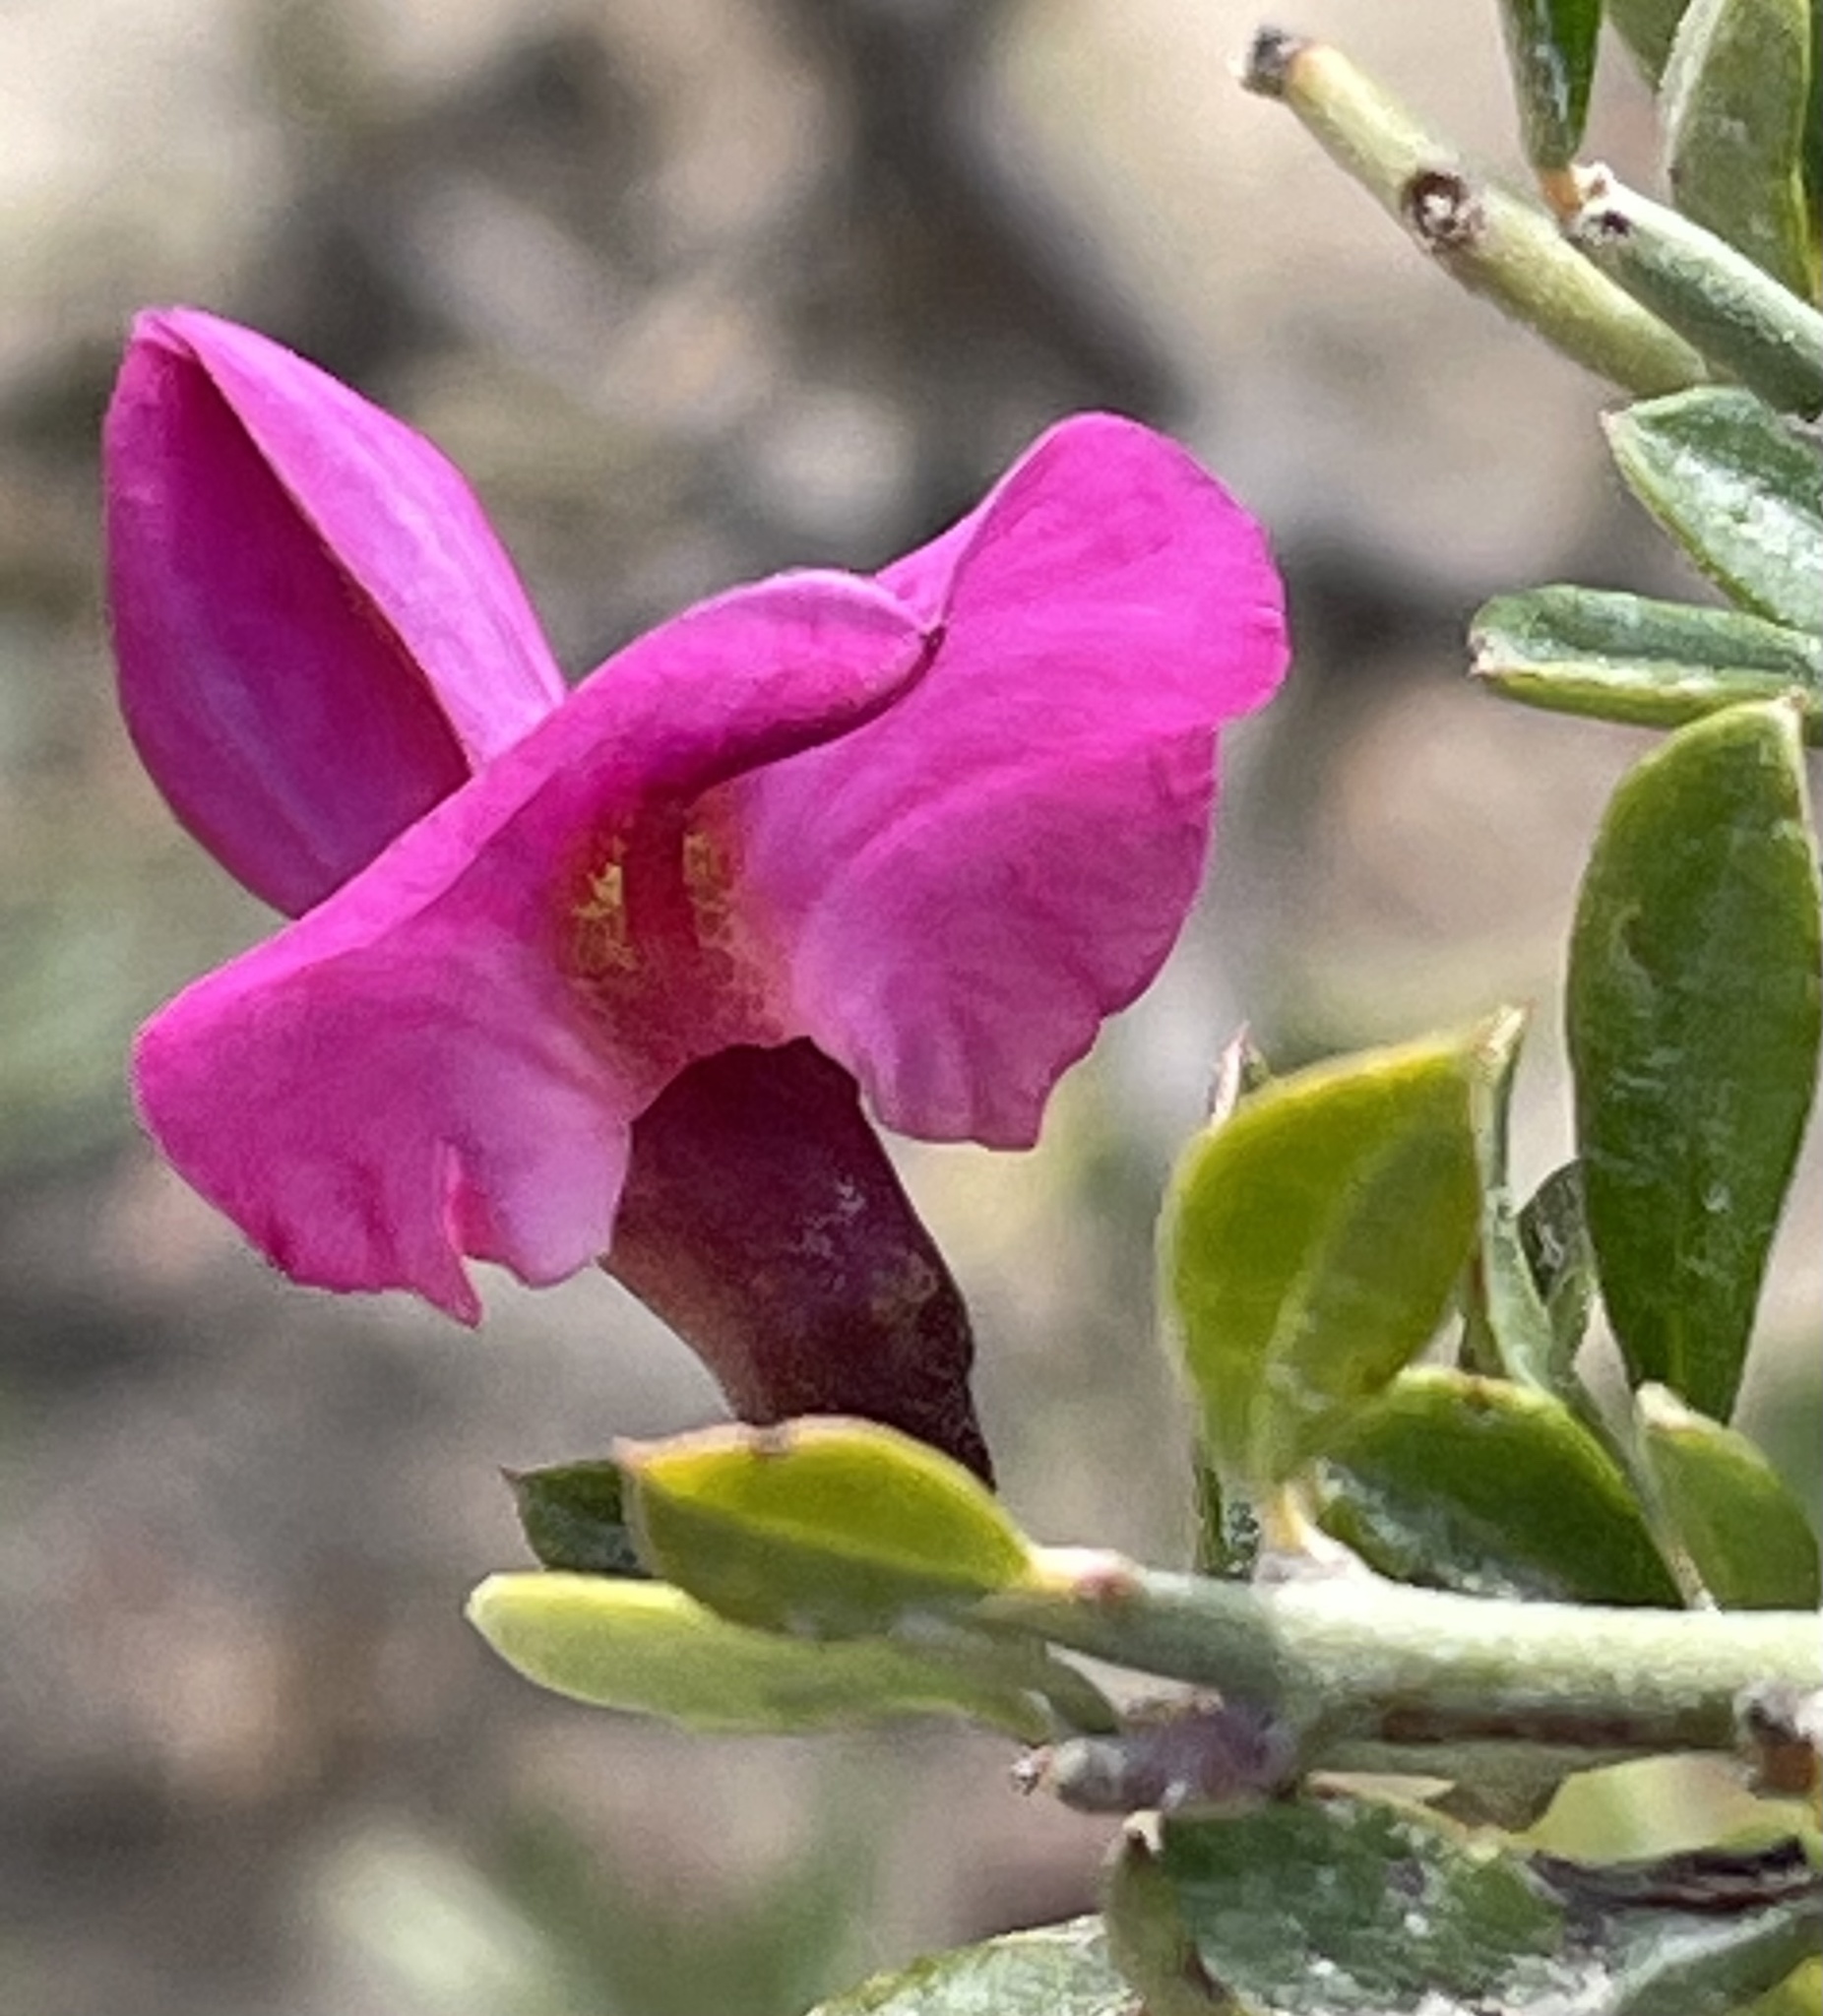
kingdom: Plantae
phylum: Tracheophyta
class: Magnoliopsida
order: Fabales
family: Fabaceae
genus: Pickeringia
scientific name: Pickeringia montana
